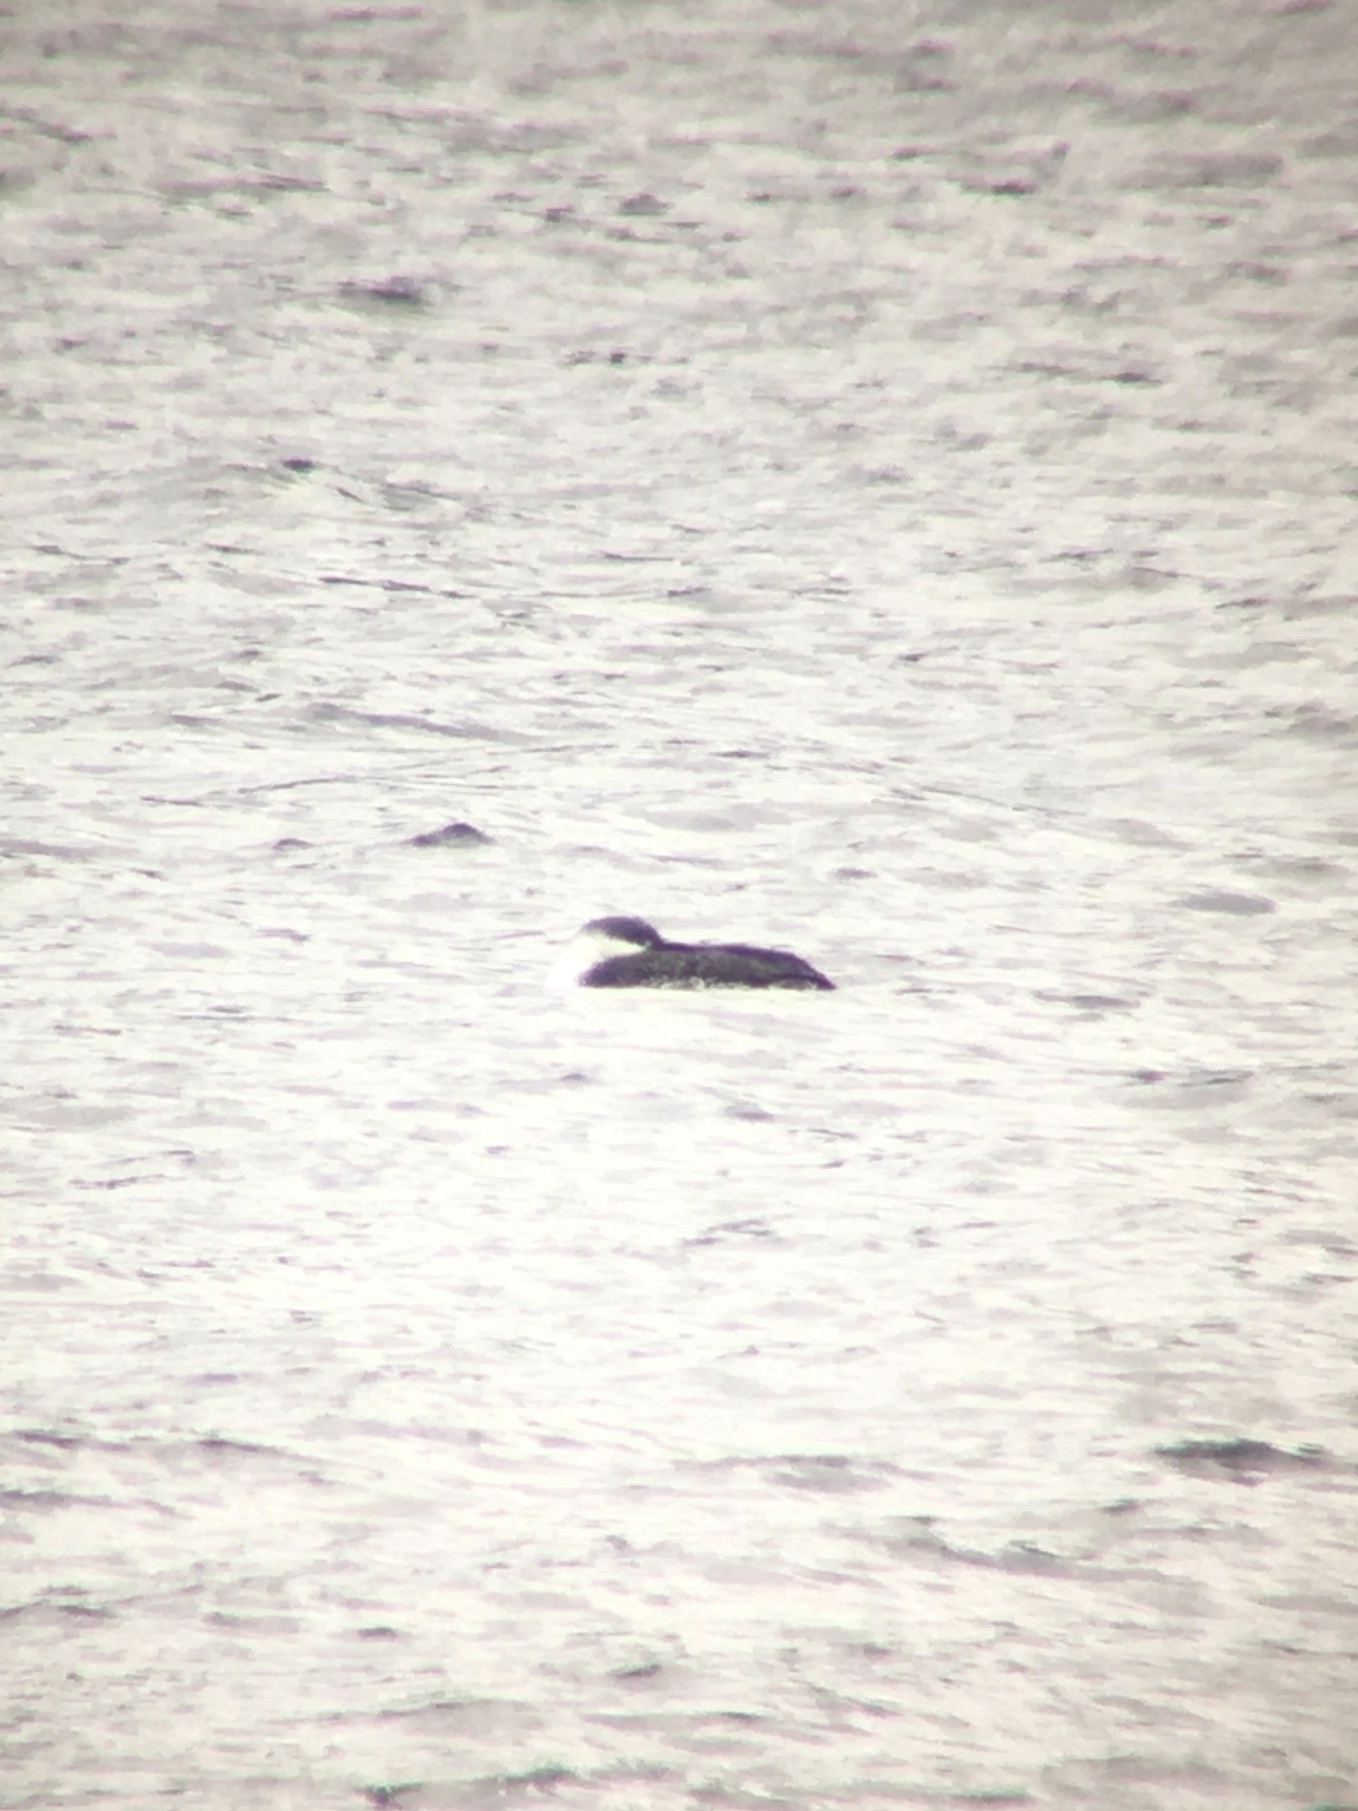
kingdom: Animalia
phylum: Chordata
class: Aves
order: Gaviiformes
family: Gaviidae
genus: Gavia
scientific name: Gavia stellata
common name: Red-throated loon
